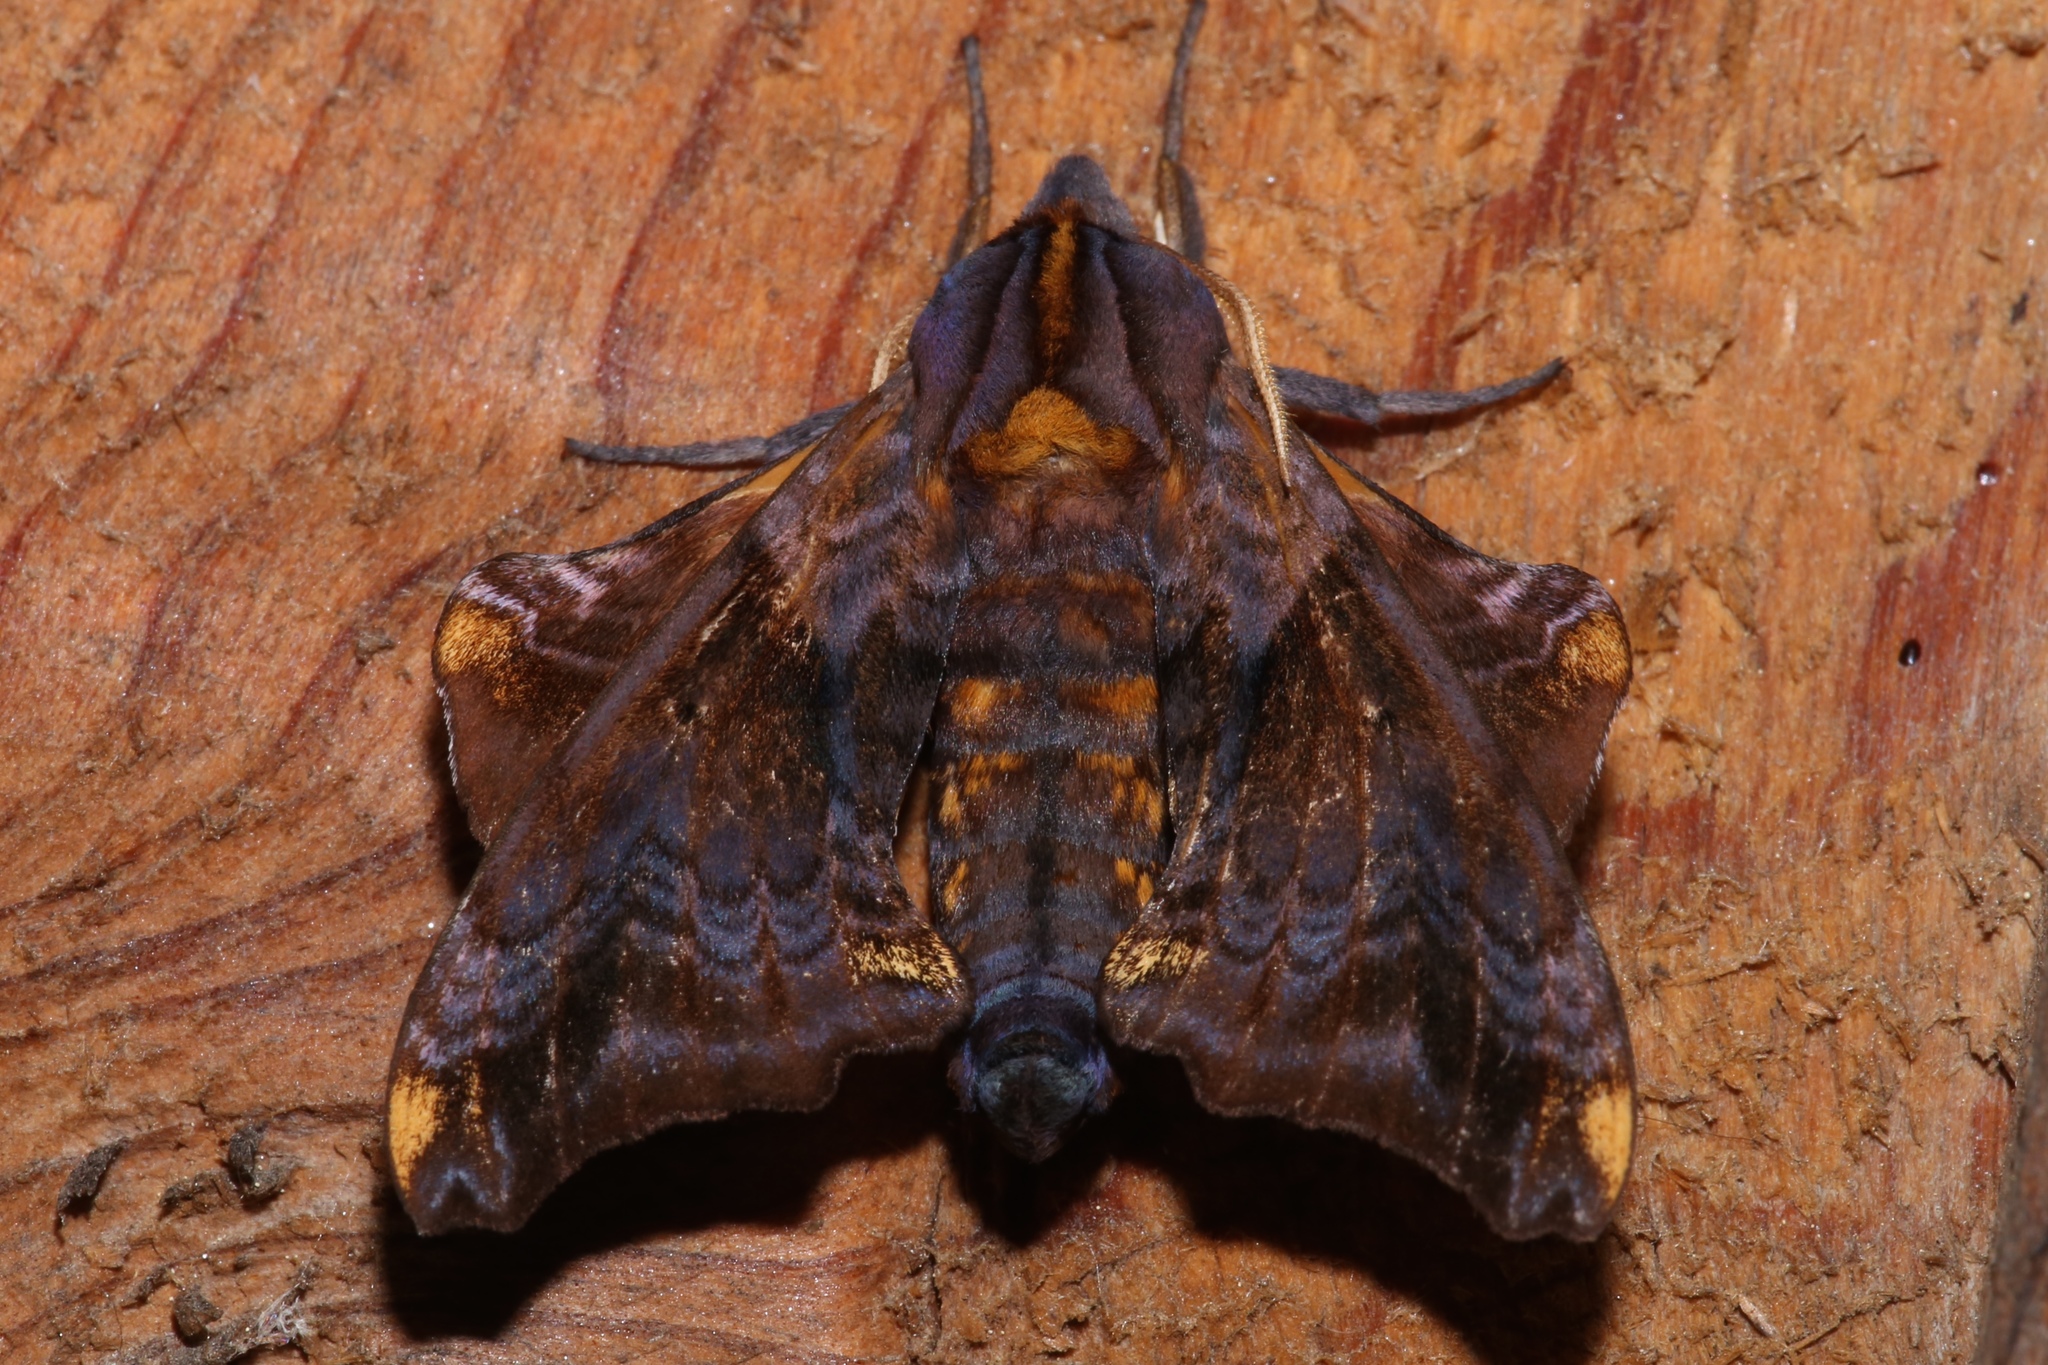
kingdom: Animalia
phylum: Arthropoda
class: Insecta
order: Lepidoptera
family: Sphingidae
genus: Paonias
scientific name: Paonias myops
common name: Small-eyed sphinx
